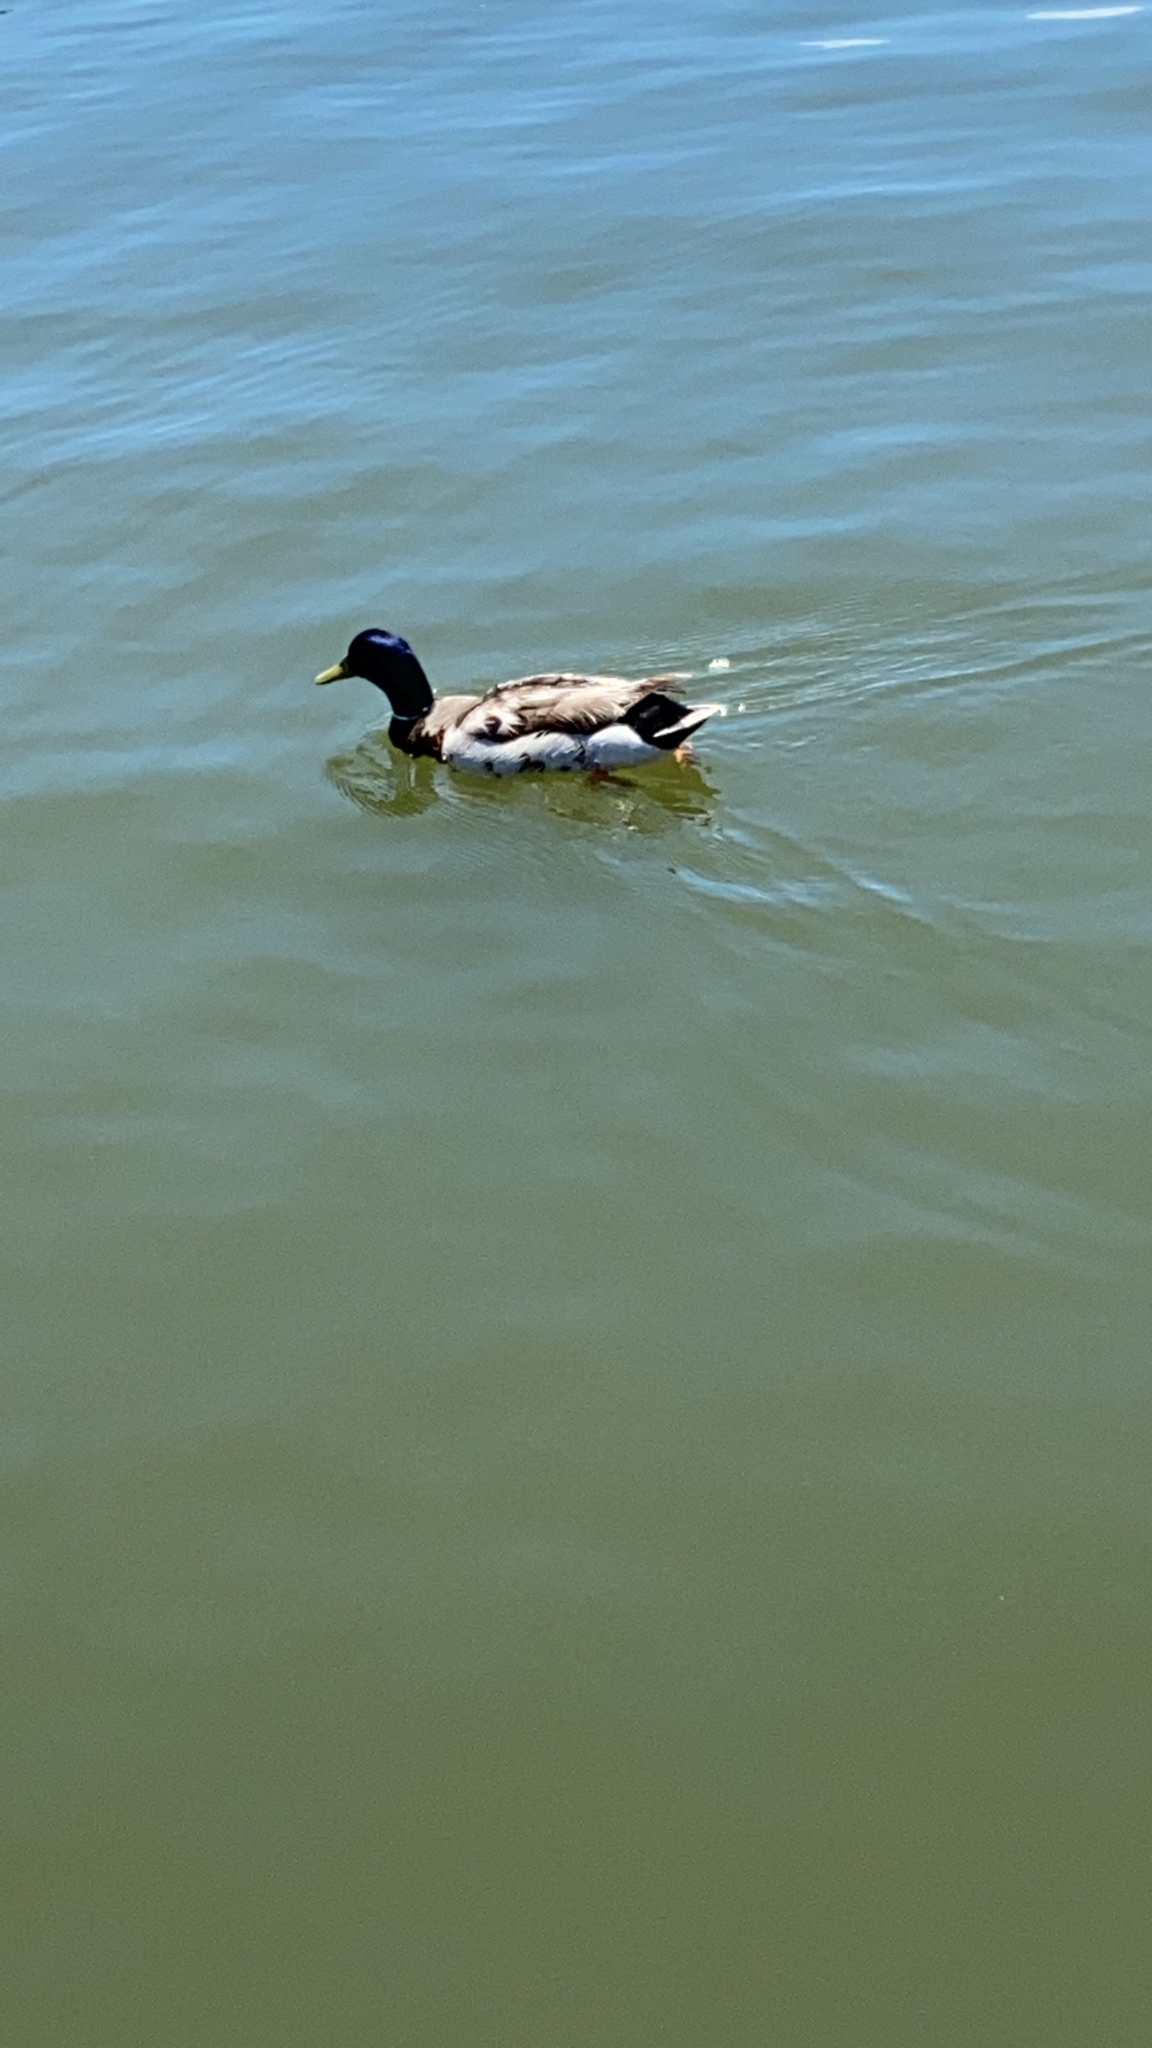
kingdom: Animalia
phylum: Chordata
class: Aves
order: Anseriformes
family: Anatidae
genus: Anas
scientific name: Anas platyrhynchos
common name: Mallard
